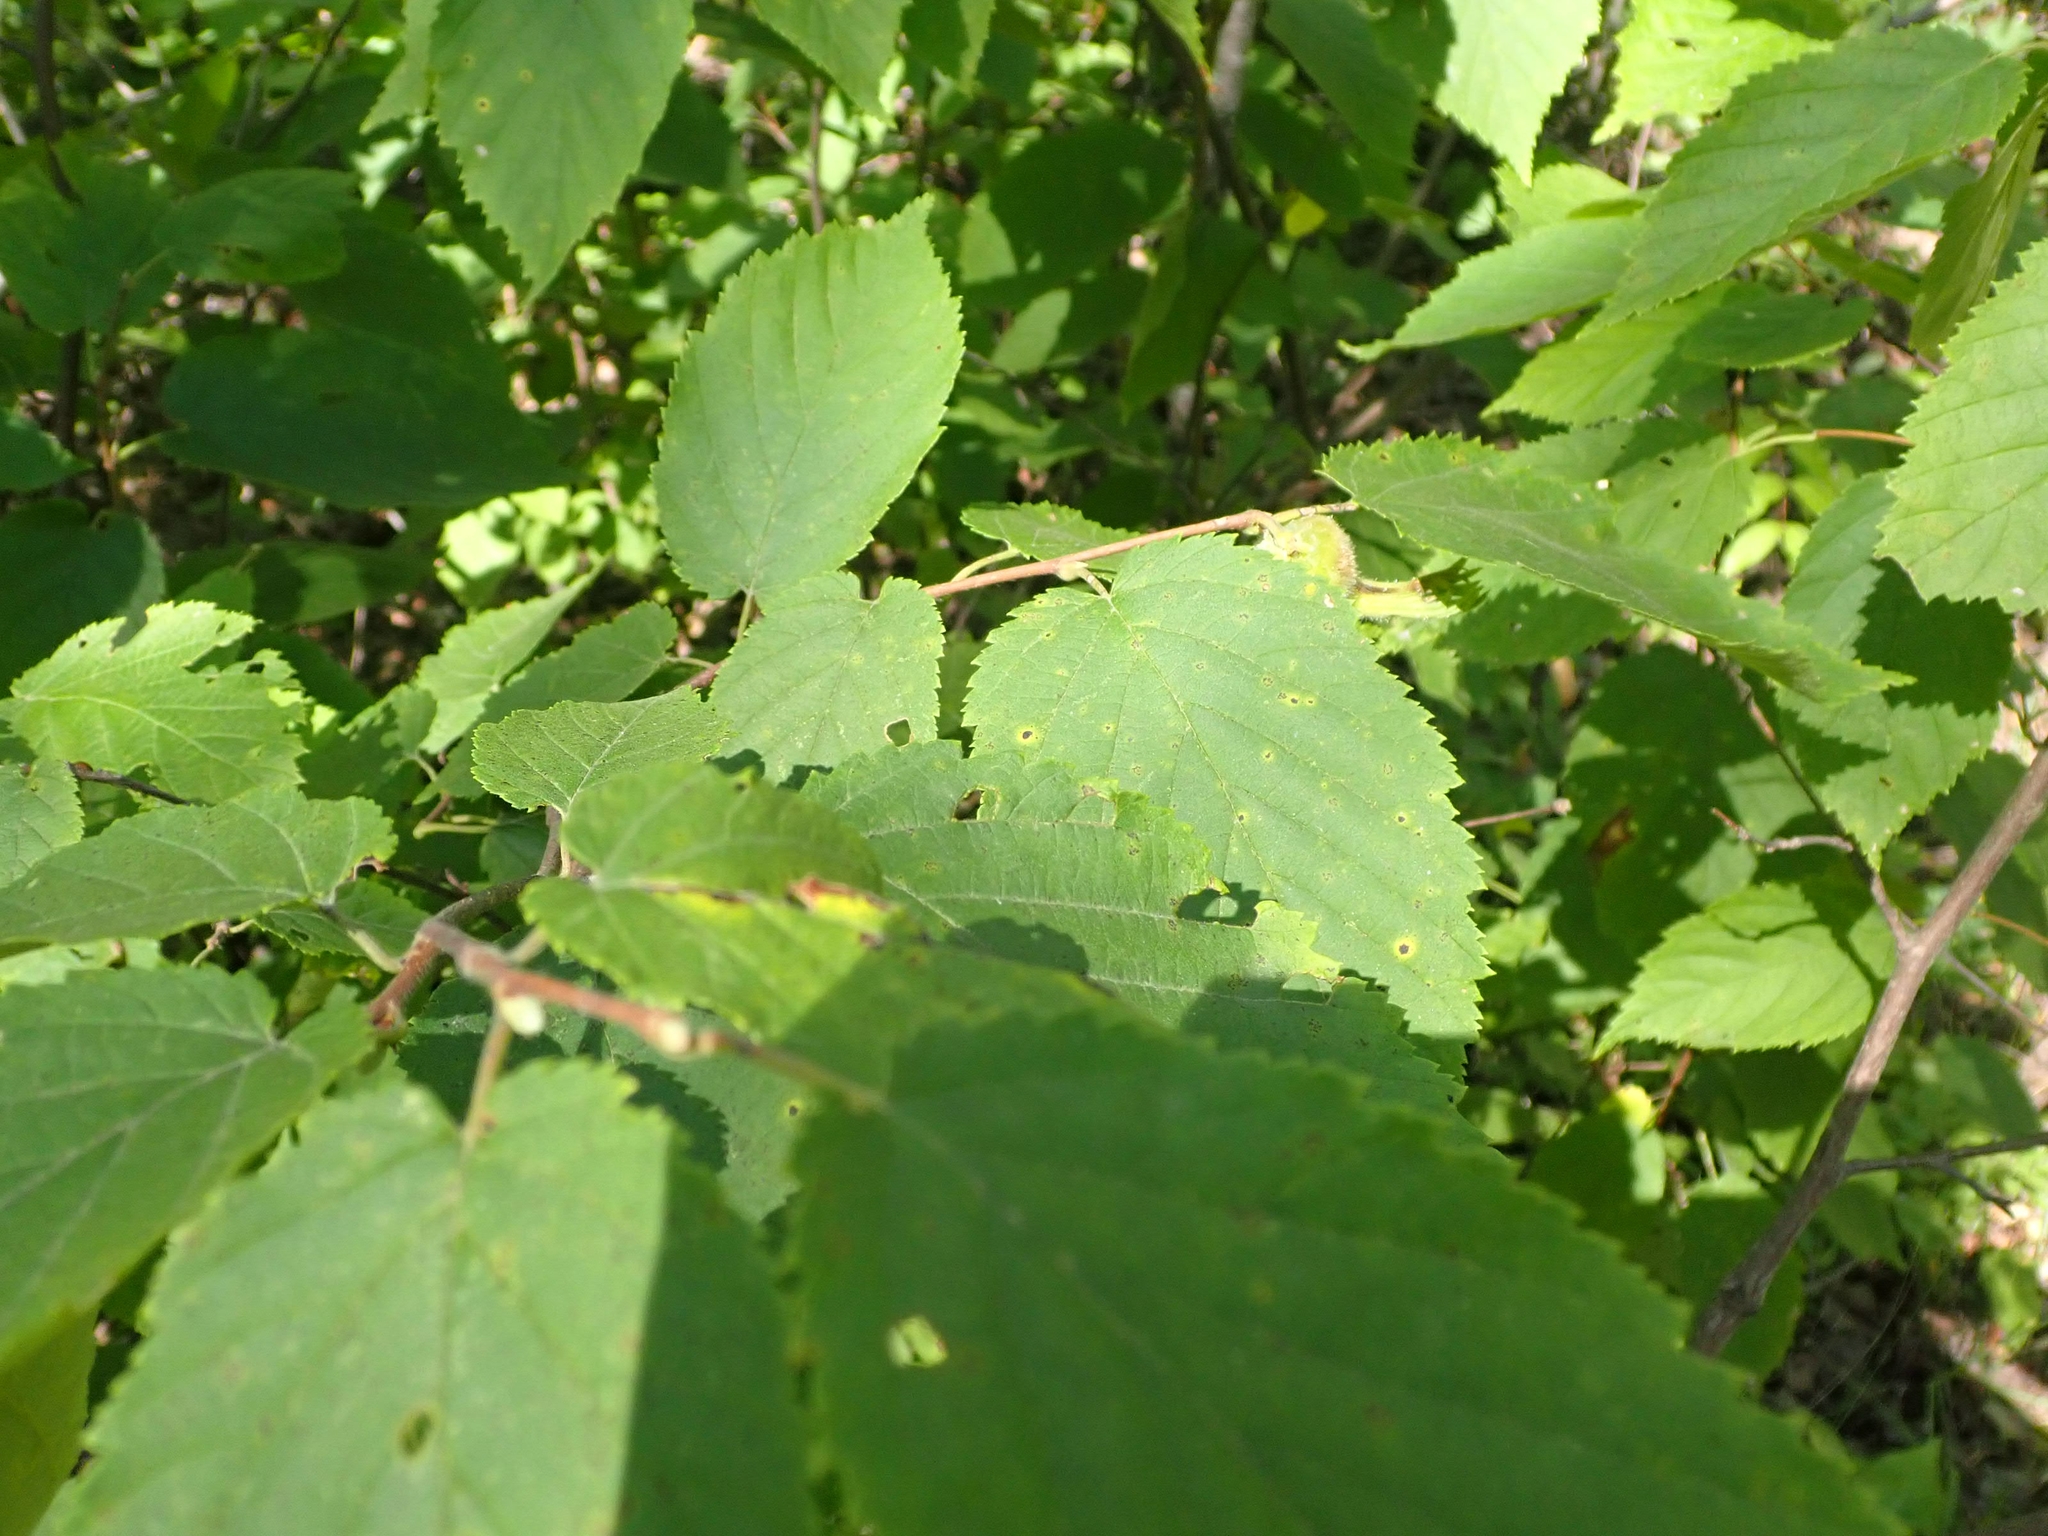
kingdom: Plantae
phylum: Tracheophyta
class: Magnoliopsida
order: Fagales
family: Betulaceae
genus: Corylus
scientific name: Corylus cornuta
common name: Beaked hazel
